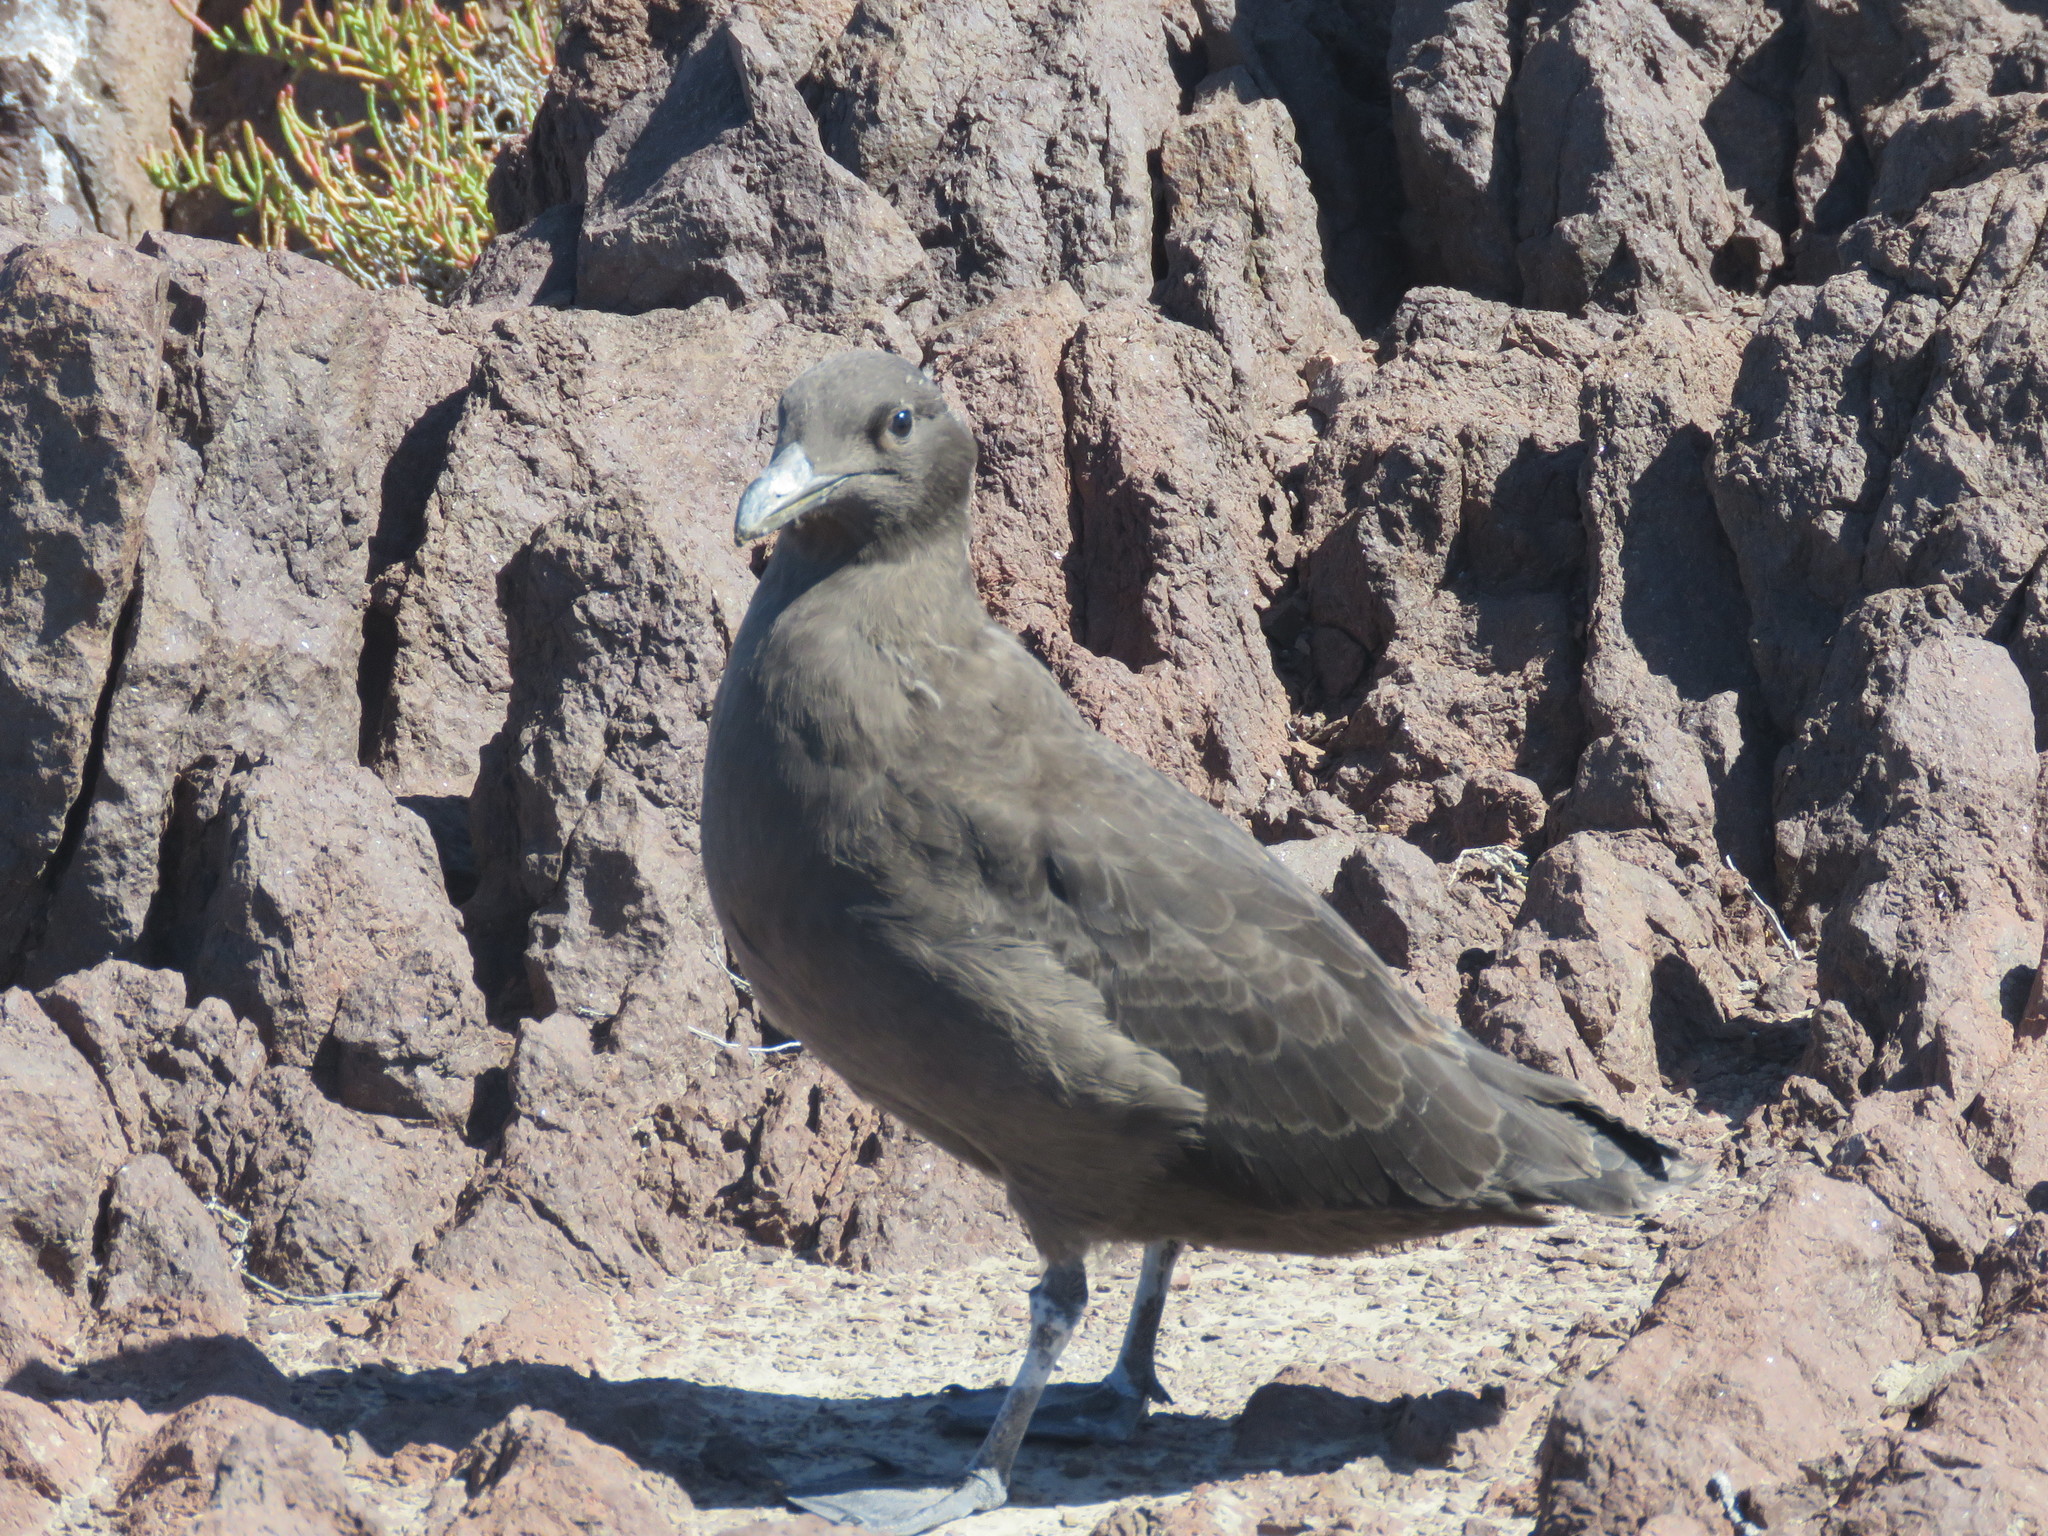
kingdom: Animalia
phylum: Chordata
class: Aves
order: Charadriiformes
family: Stercorariidae
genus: Stercorarius
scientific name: Stercorarius antarcticus
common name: Brown skua
